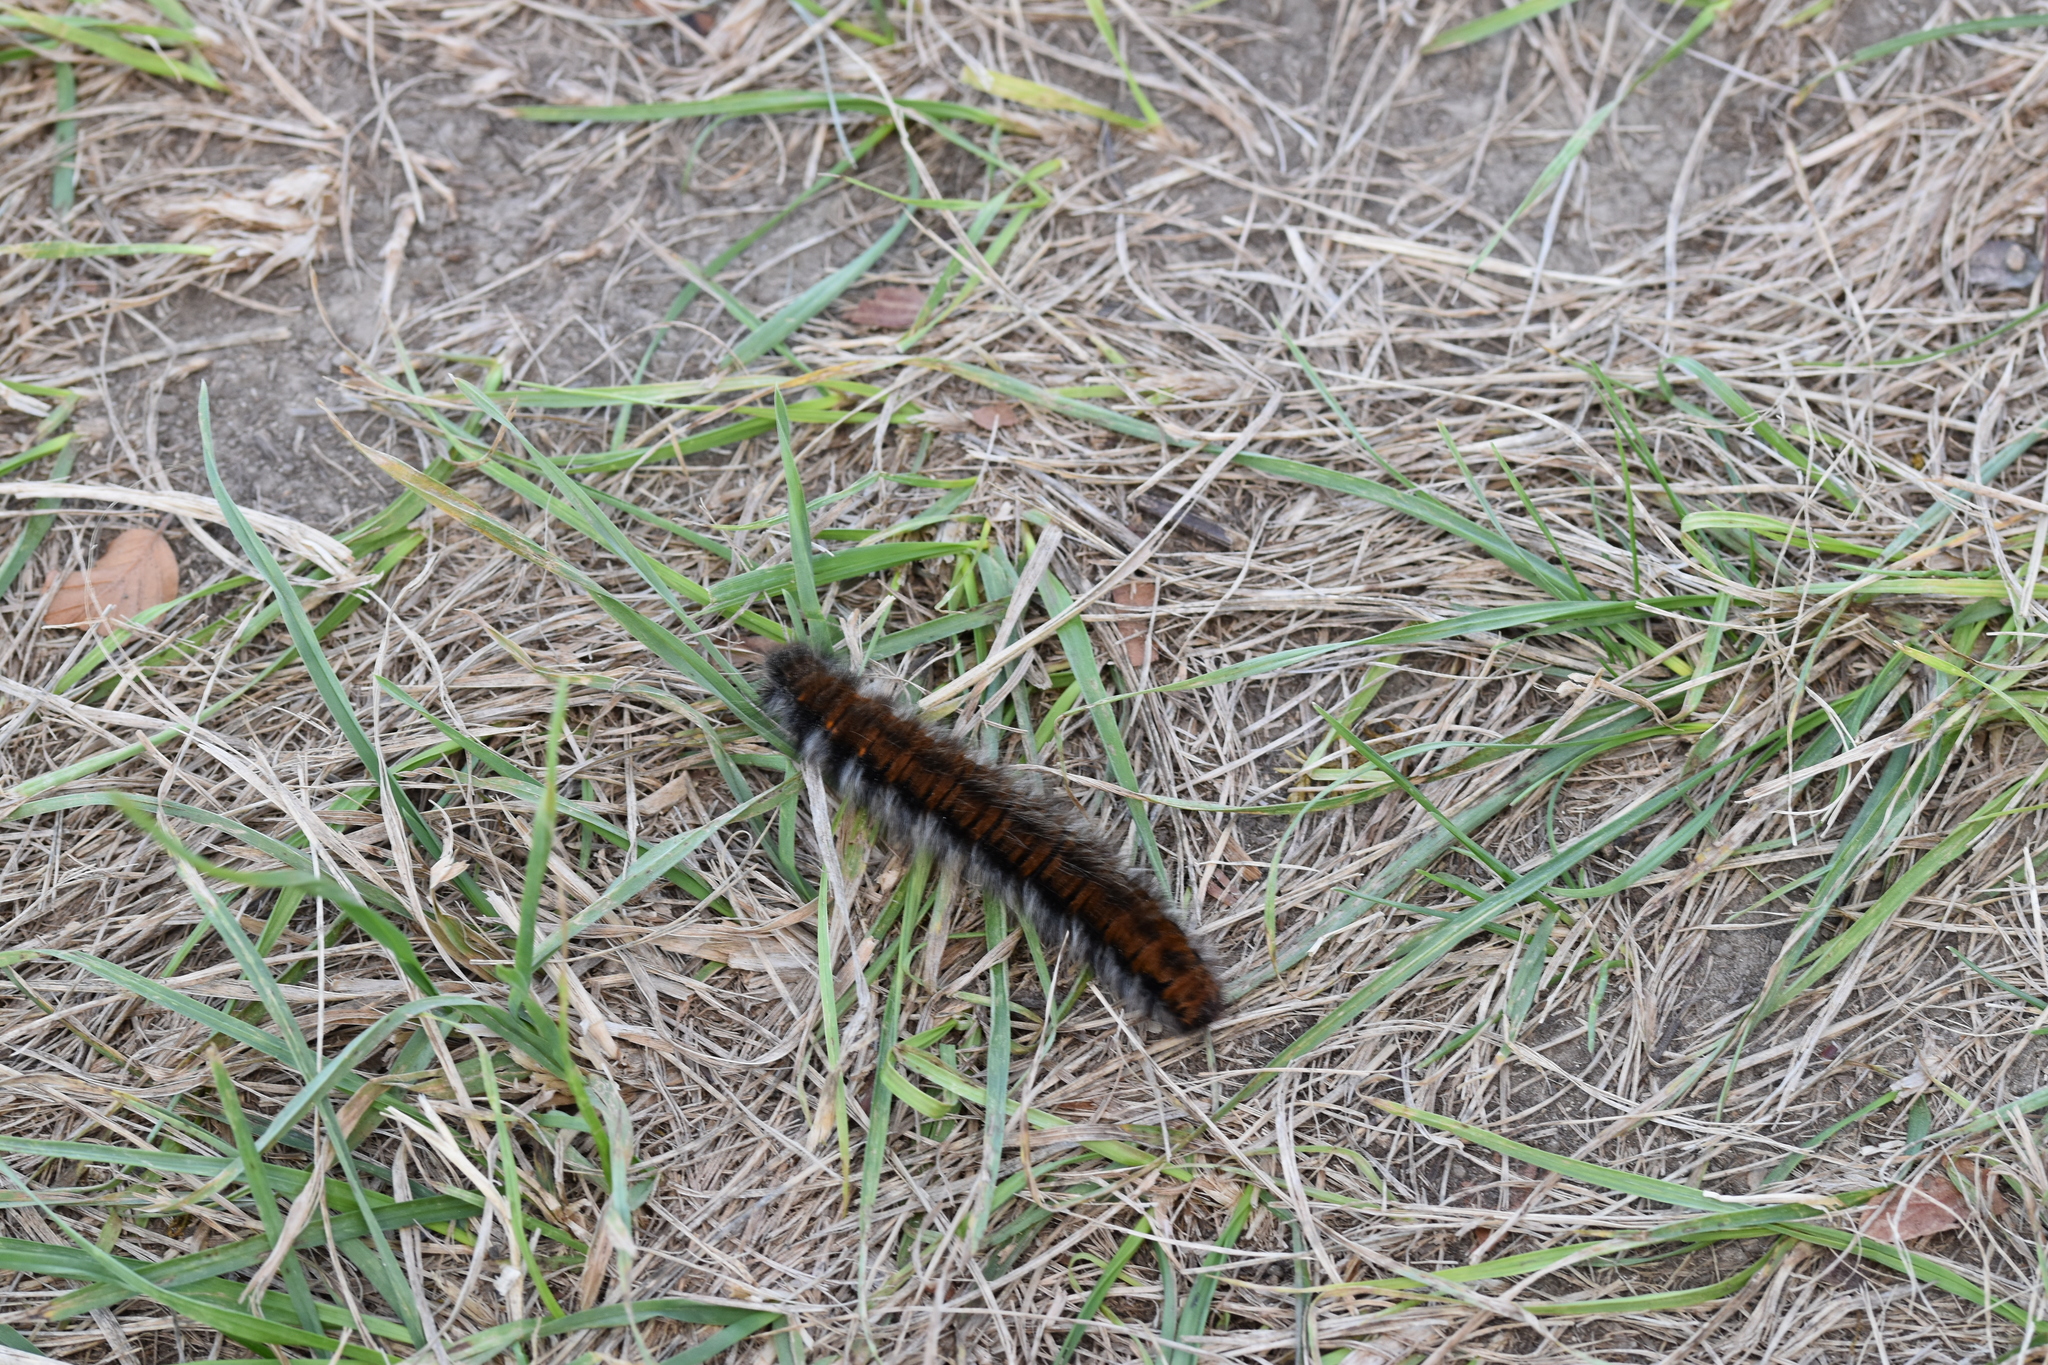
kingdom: Animalia
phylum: Arthropoda
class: Insecta
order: Lepidoptera
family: Lasiocampidae
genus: Macrothylacia
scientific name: Macrothylacia rubi
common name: Fox moth
